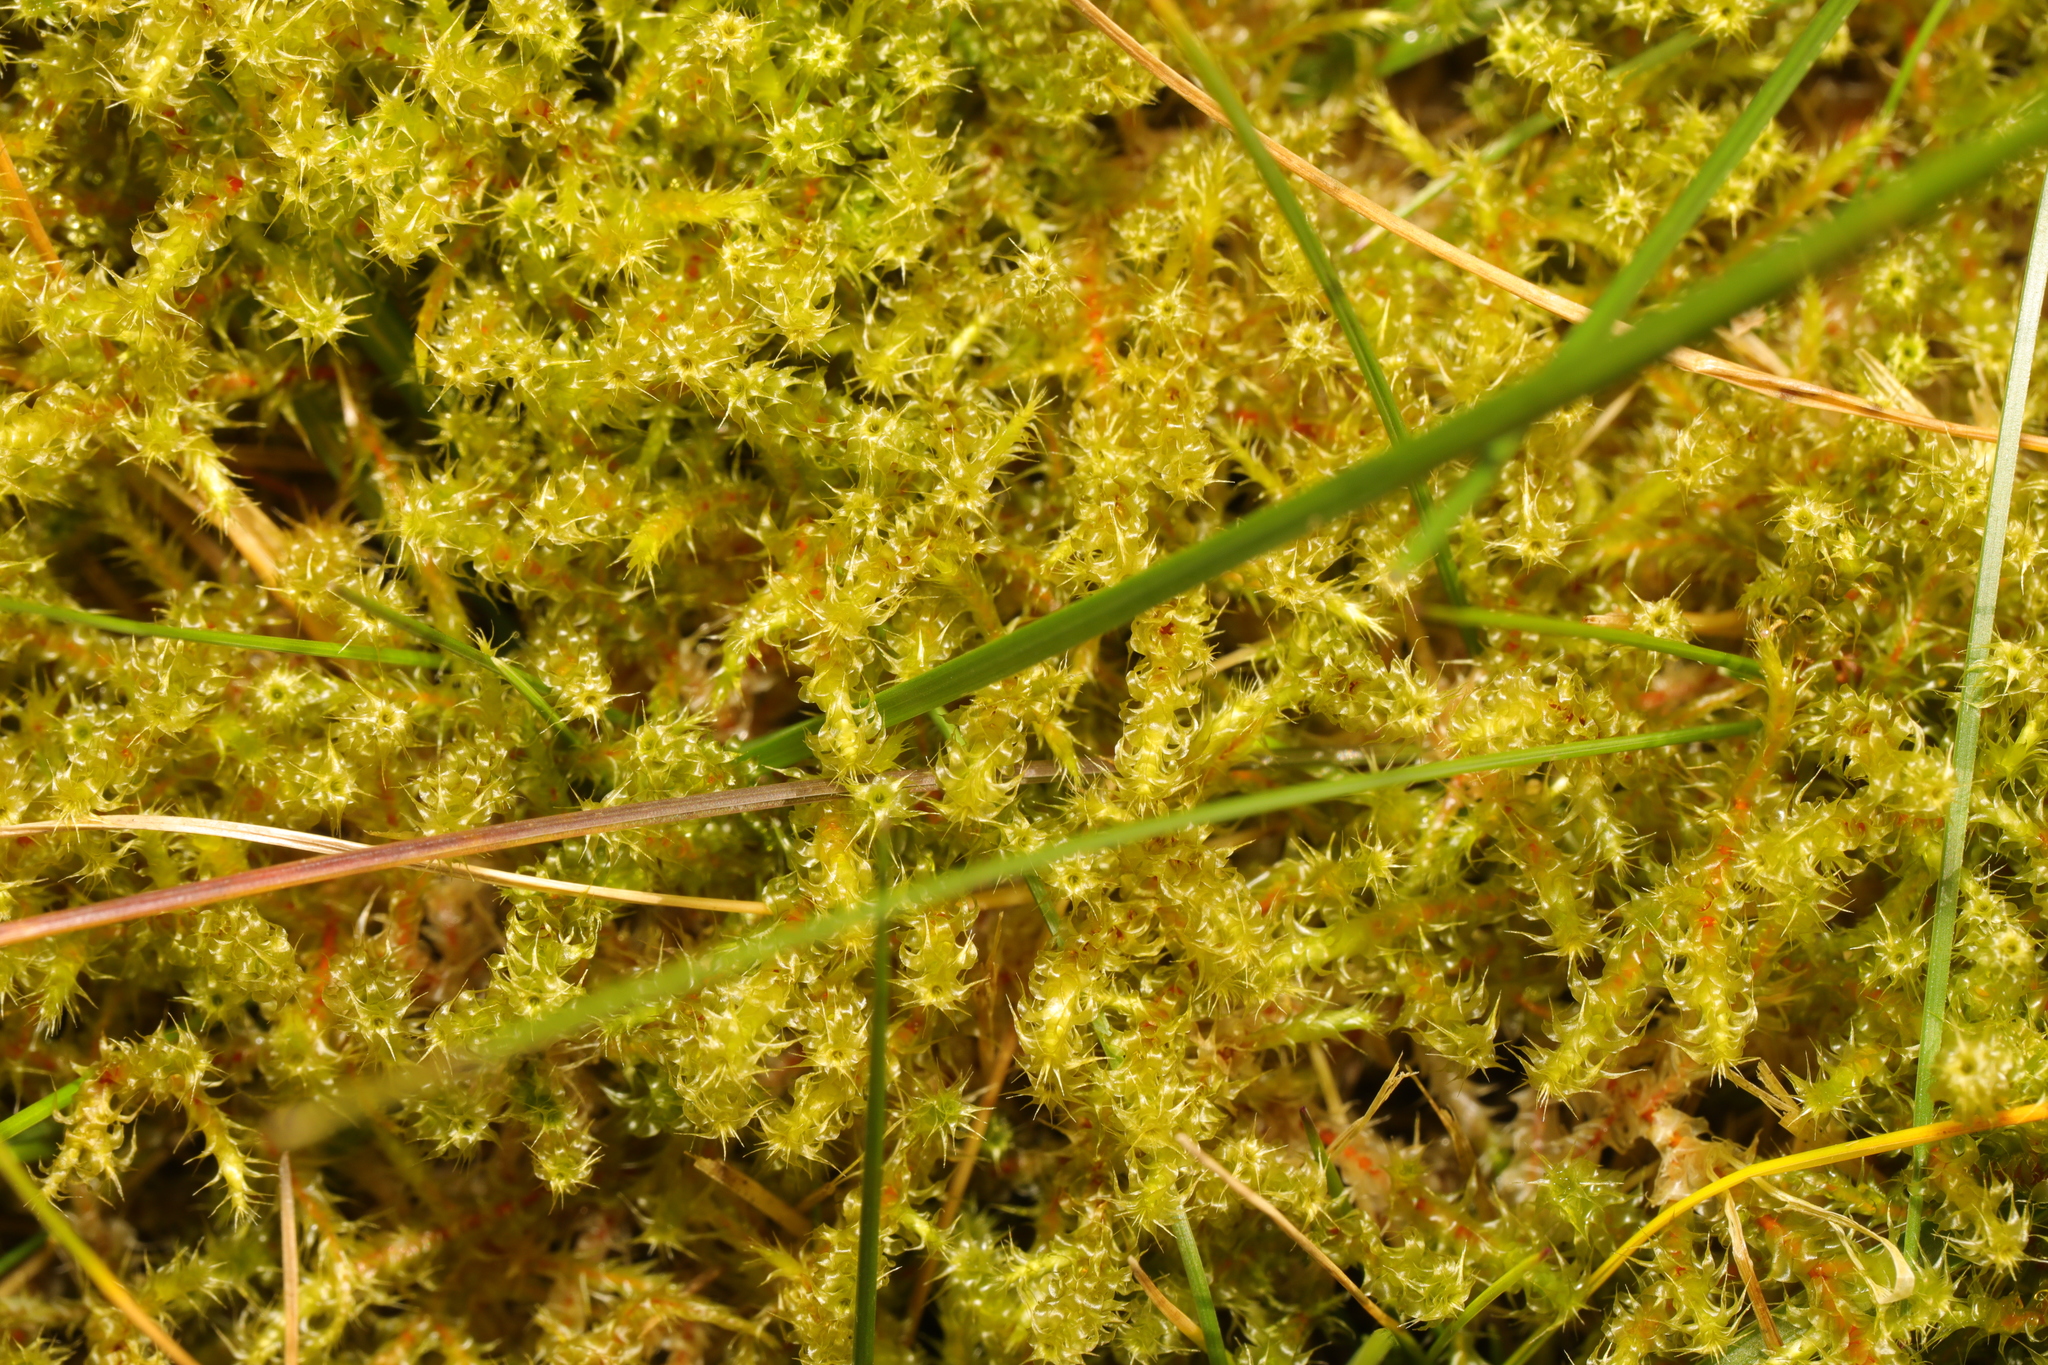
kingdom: Plantae
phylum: Bryophyta
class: Bryopsida
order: Hypnales
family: Hylocomiaceae
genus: Rhytidiadelphus
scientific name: Rhytidiadelphus squarrosus
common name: Springy turf-moss
